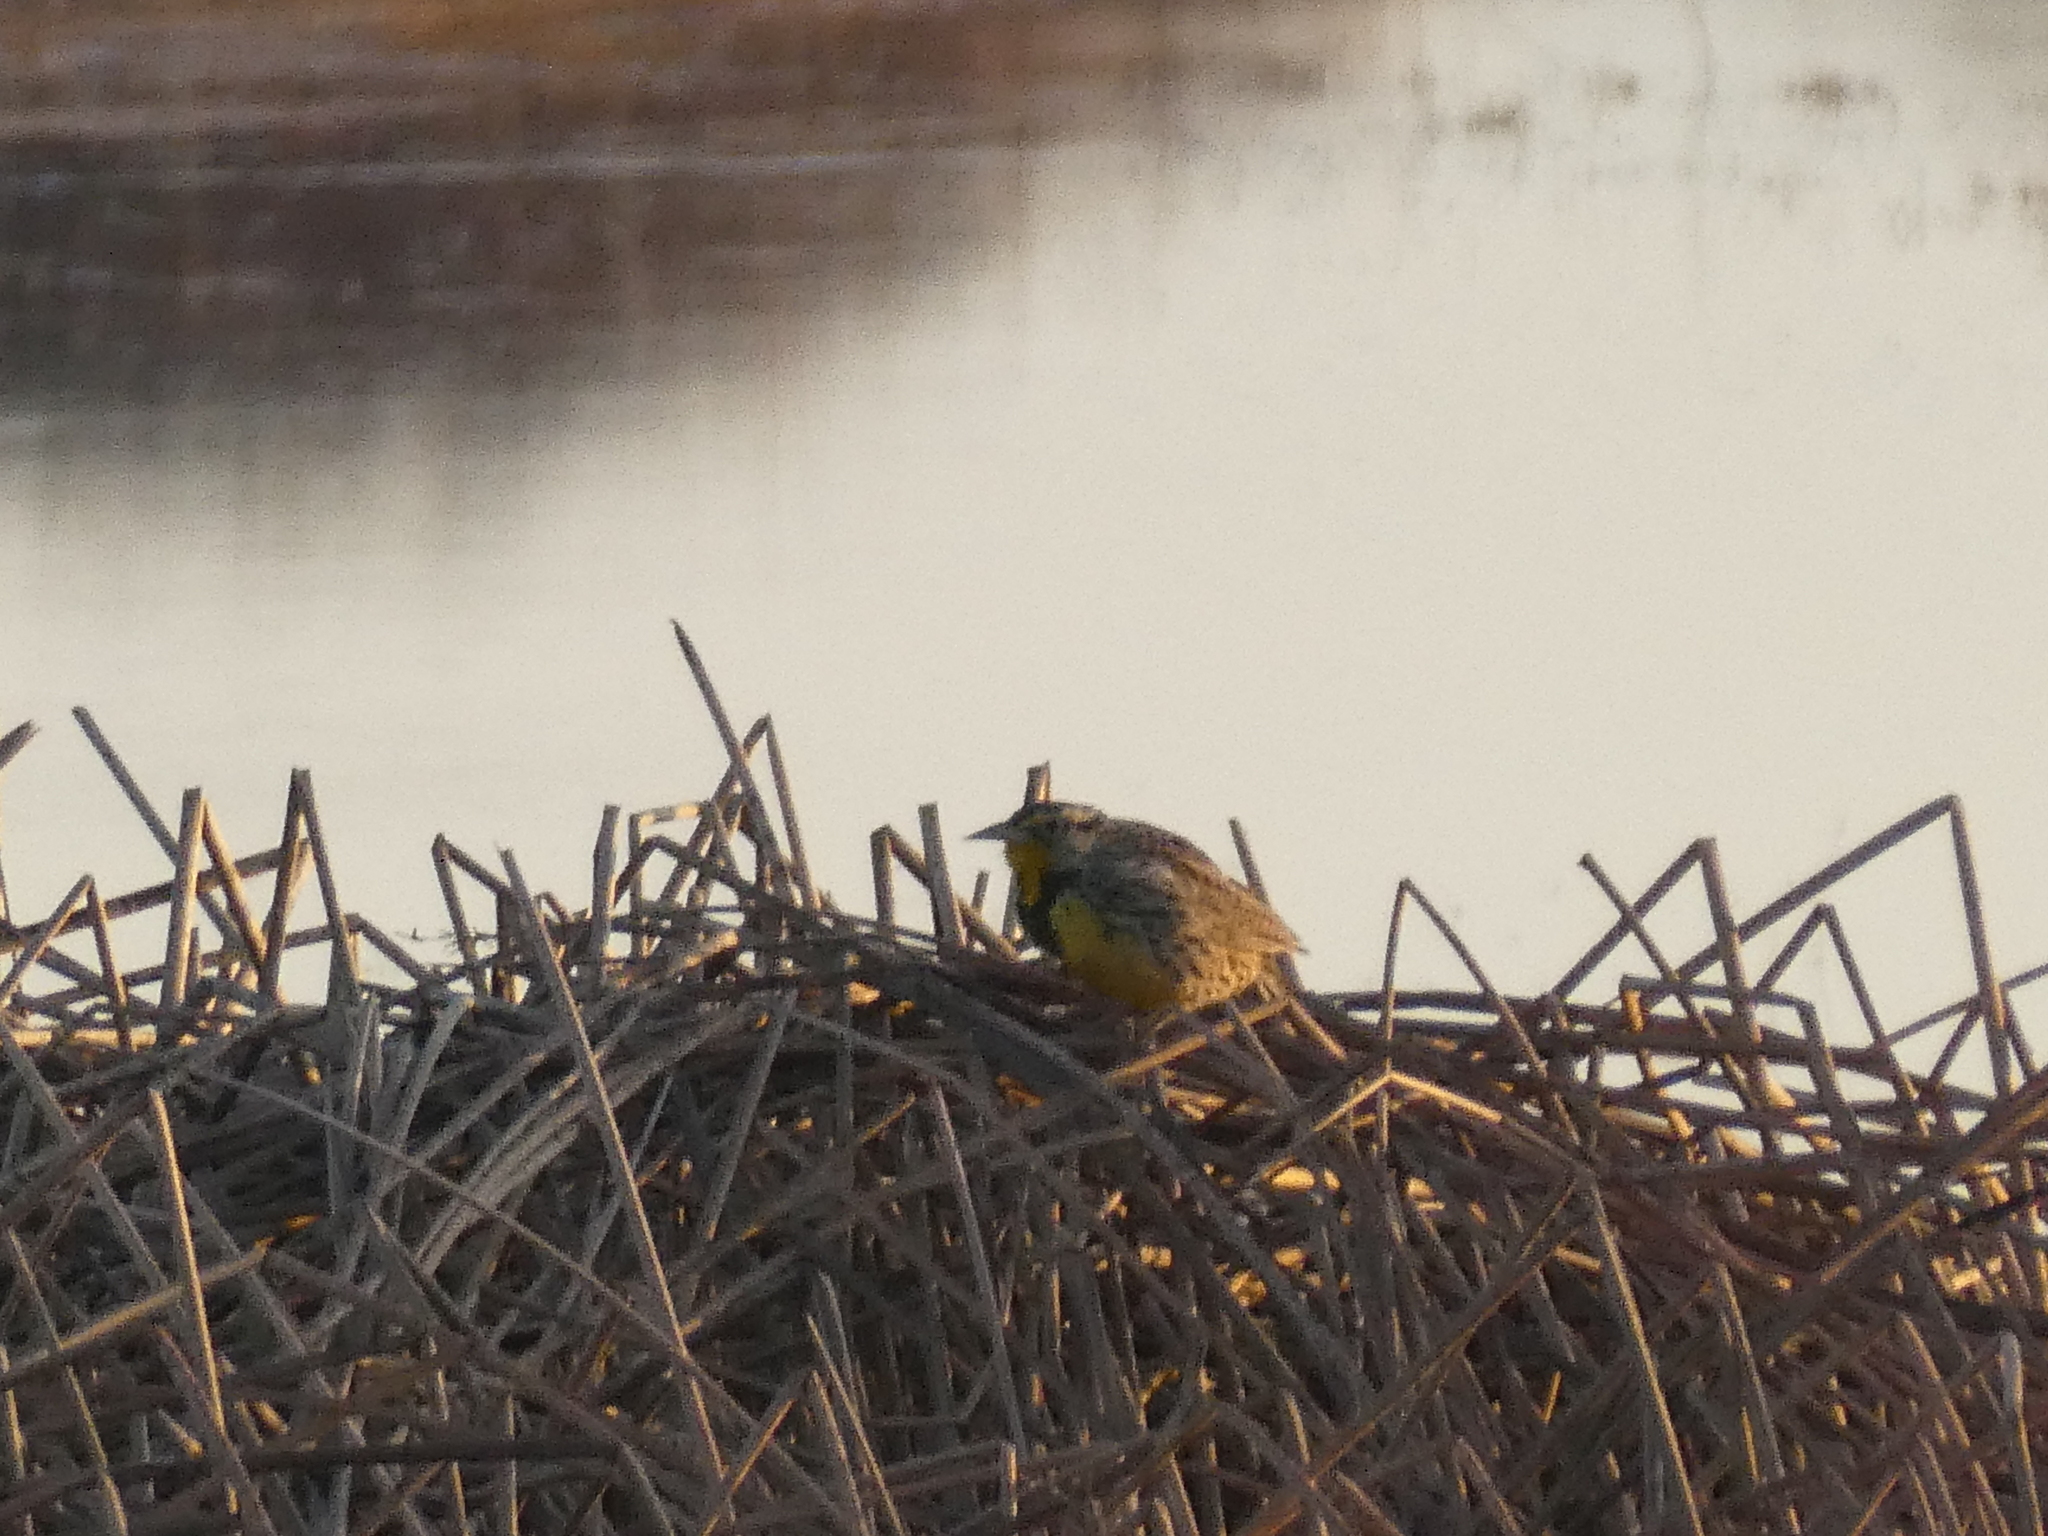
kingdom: Animalia
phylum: Chordata
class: Aves
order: Passeriformes
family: Icteridae
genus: Sturnella
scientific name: Sturnella neglecta
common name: Western meadowlark
